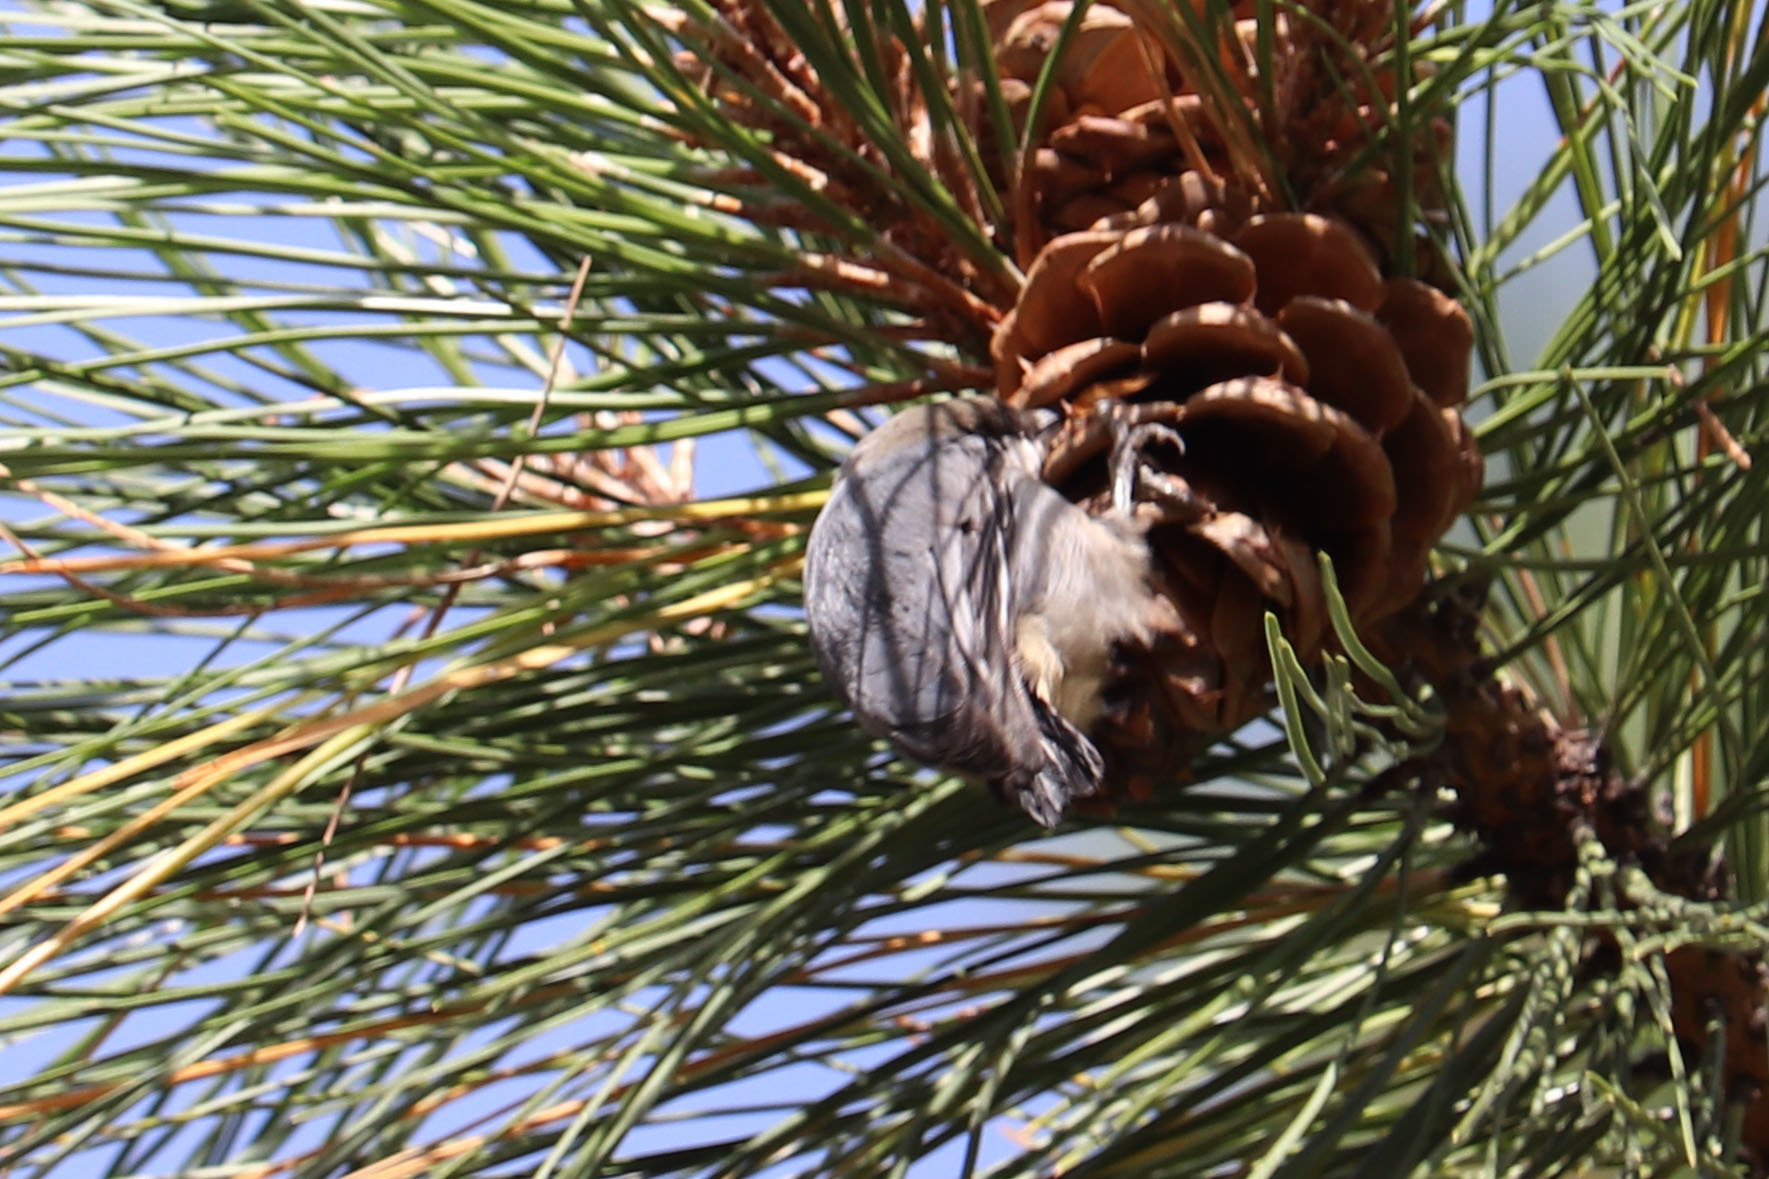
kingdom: Animalia
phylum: Chordata
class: Aves
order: Passeriformes
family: Sittidae
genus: Sitta
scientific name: Sitta pygmaea
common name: Pygmy nuthatch
